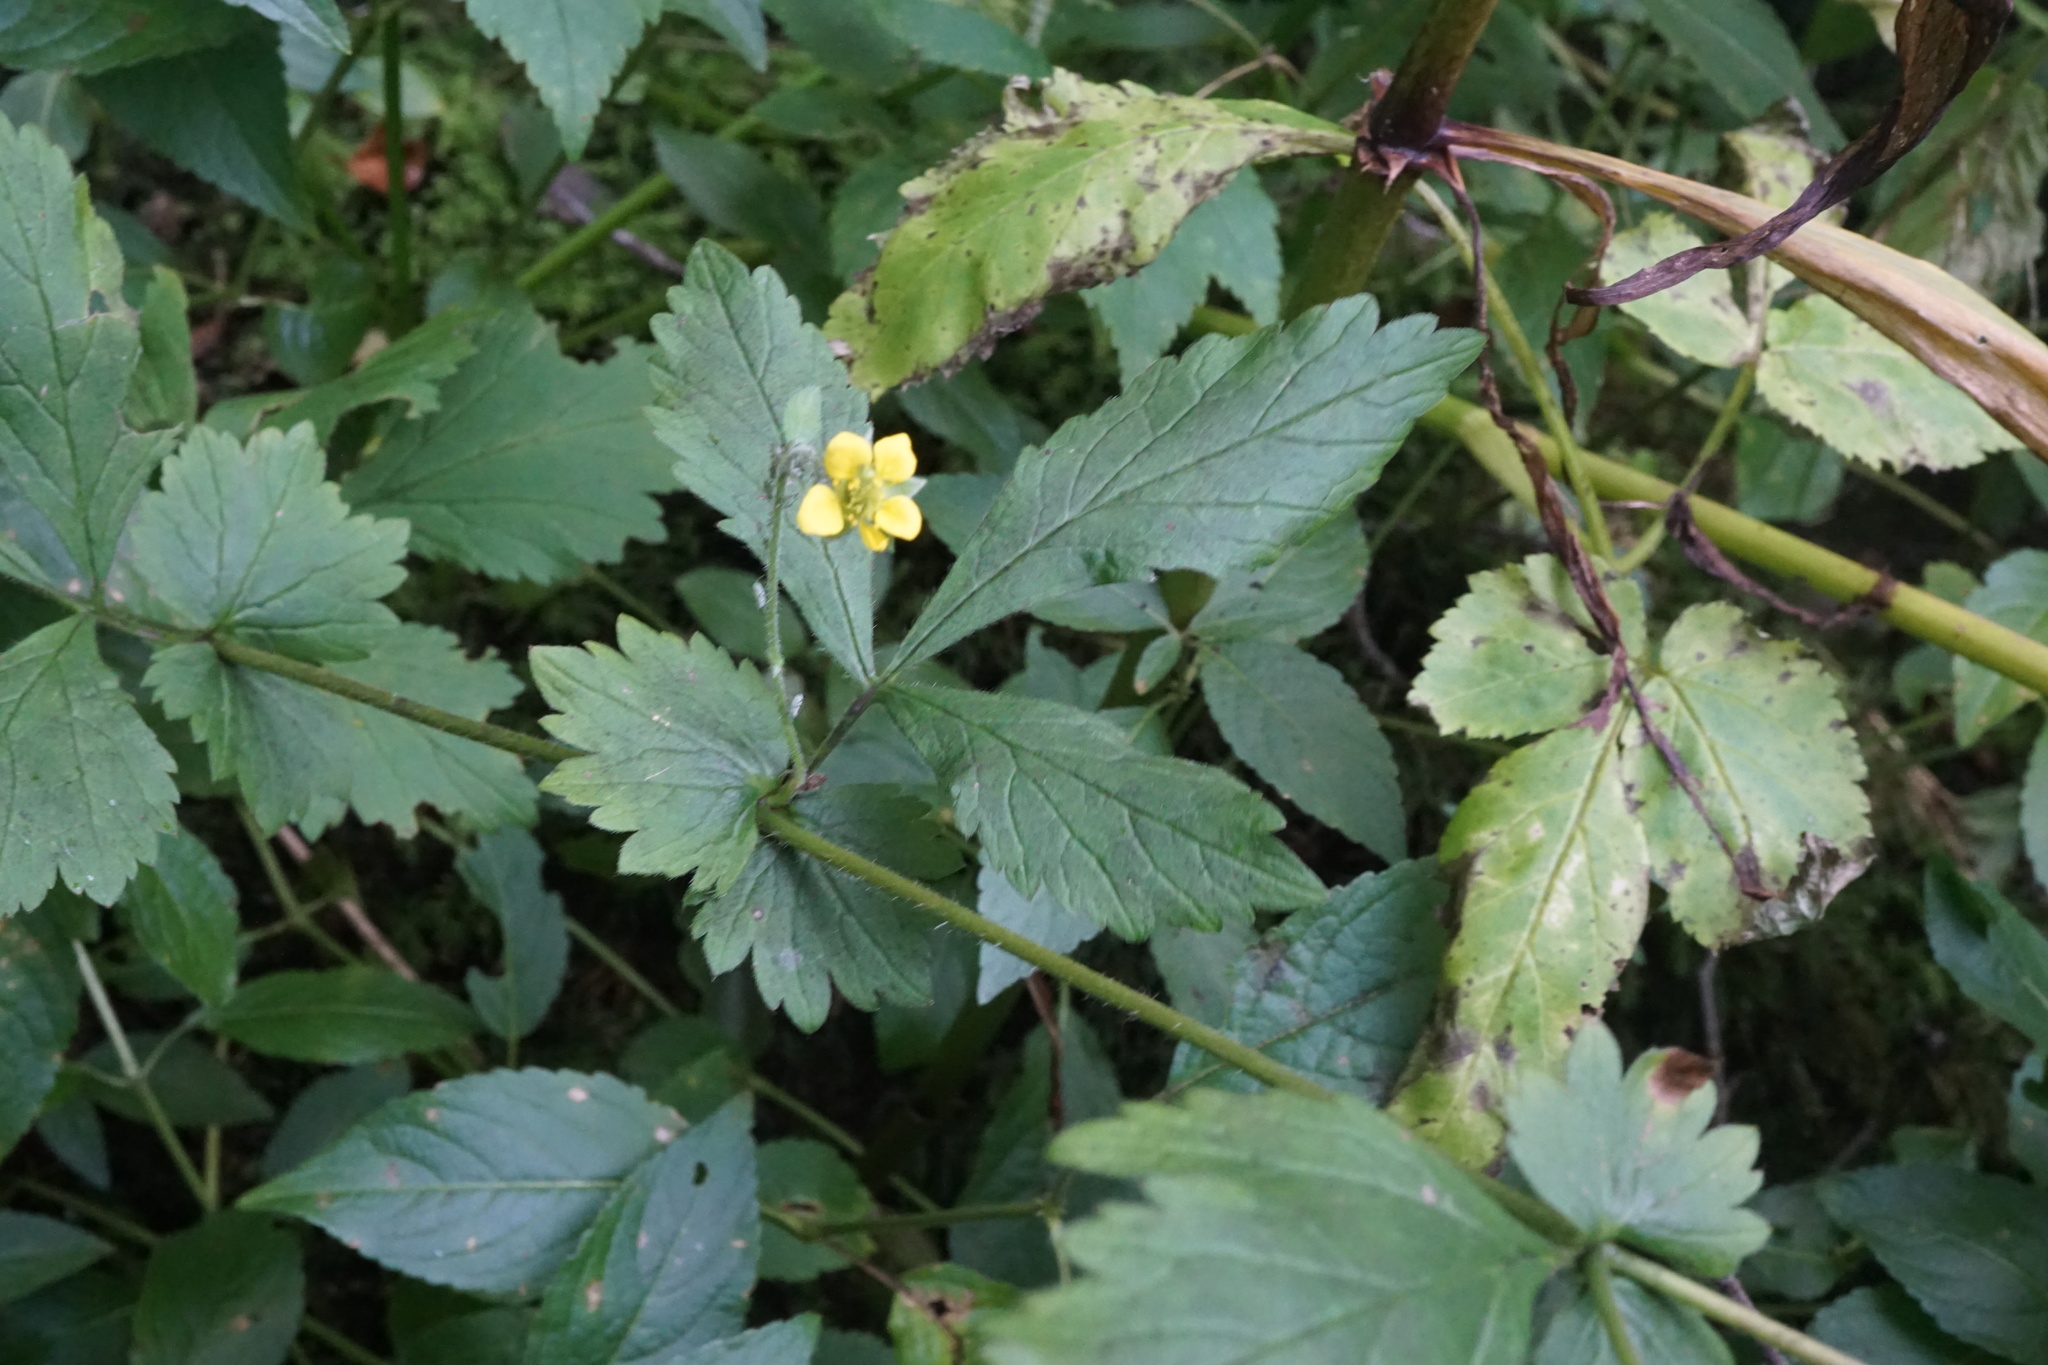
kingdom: Plantae
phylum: Tracheophyta
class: Magnoliopsida
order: Rosales
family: Rosaceae
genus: Geum
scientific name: Geum urbanum
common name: Wood avens
